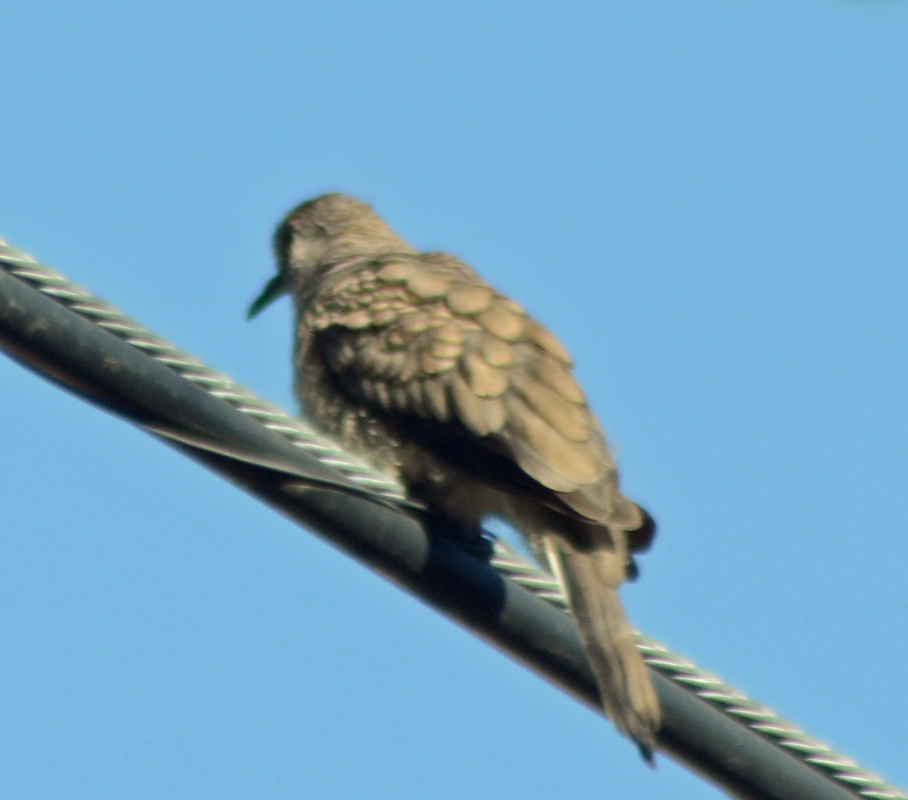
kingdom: Animalia
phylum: Chordata
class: Aves
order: Columbiformes
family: Columbidae
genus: Columbina
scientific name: Columbina inca
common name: Inca dove
